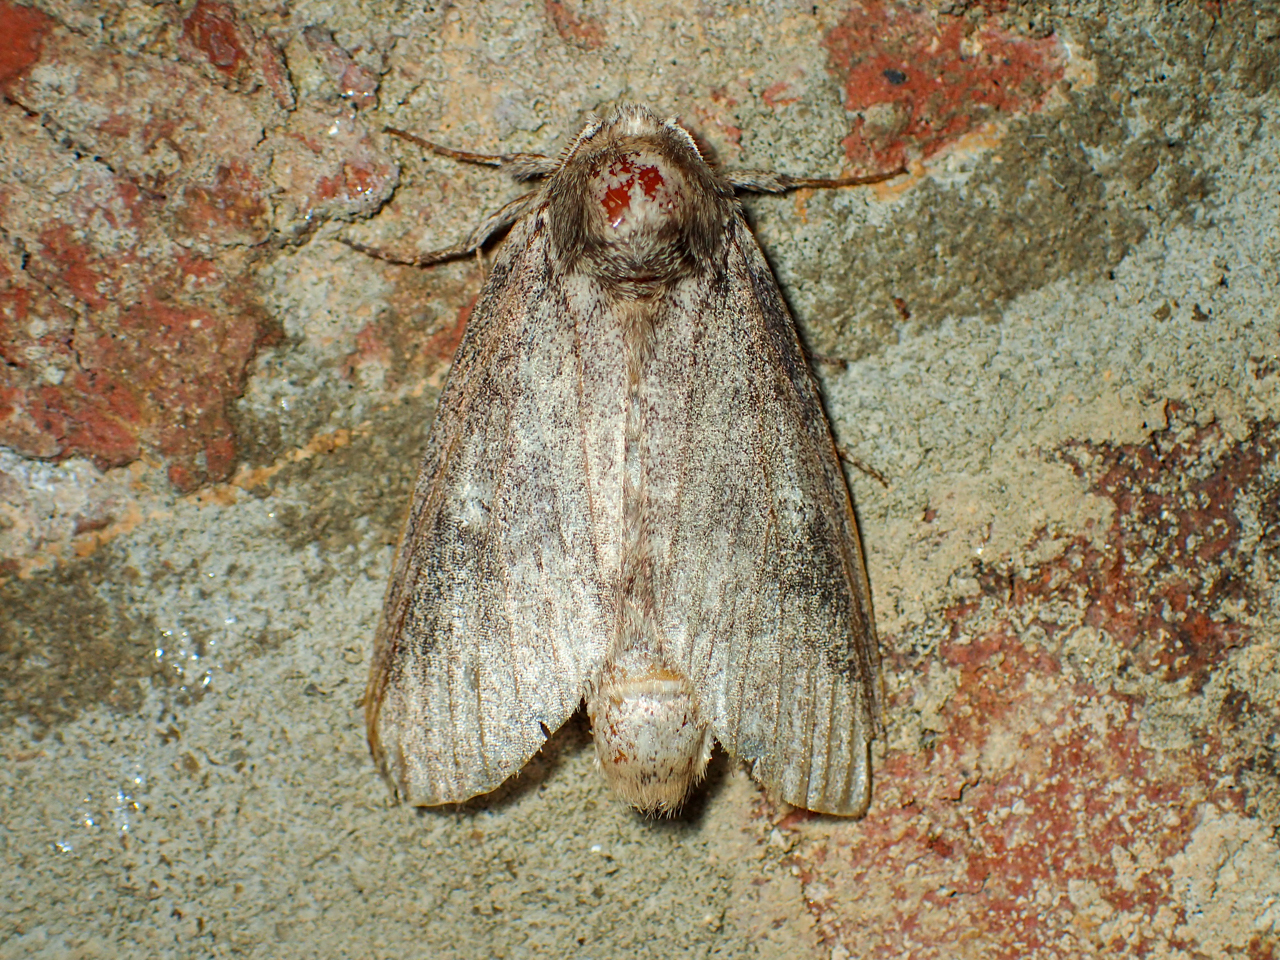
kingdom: Animalia
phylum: Arthropoda
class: Insecta
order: Lepidoptera
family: Notodontidae
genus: Lochmaeus
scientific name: Lochmaeus manteo
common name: Variable oakleaf caterpillar moth
